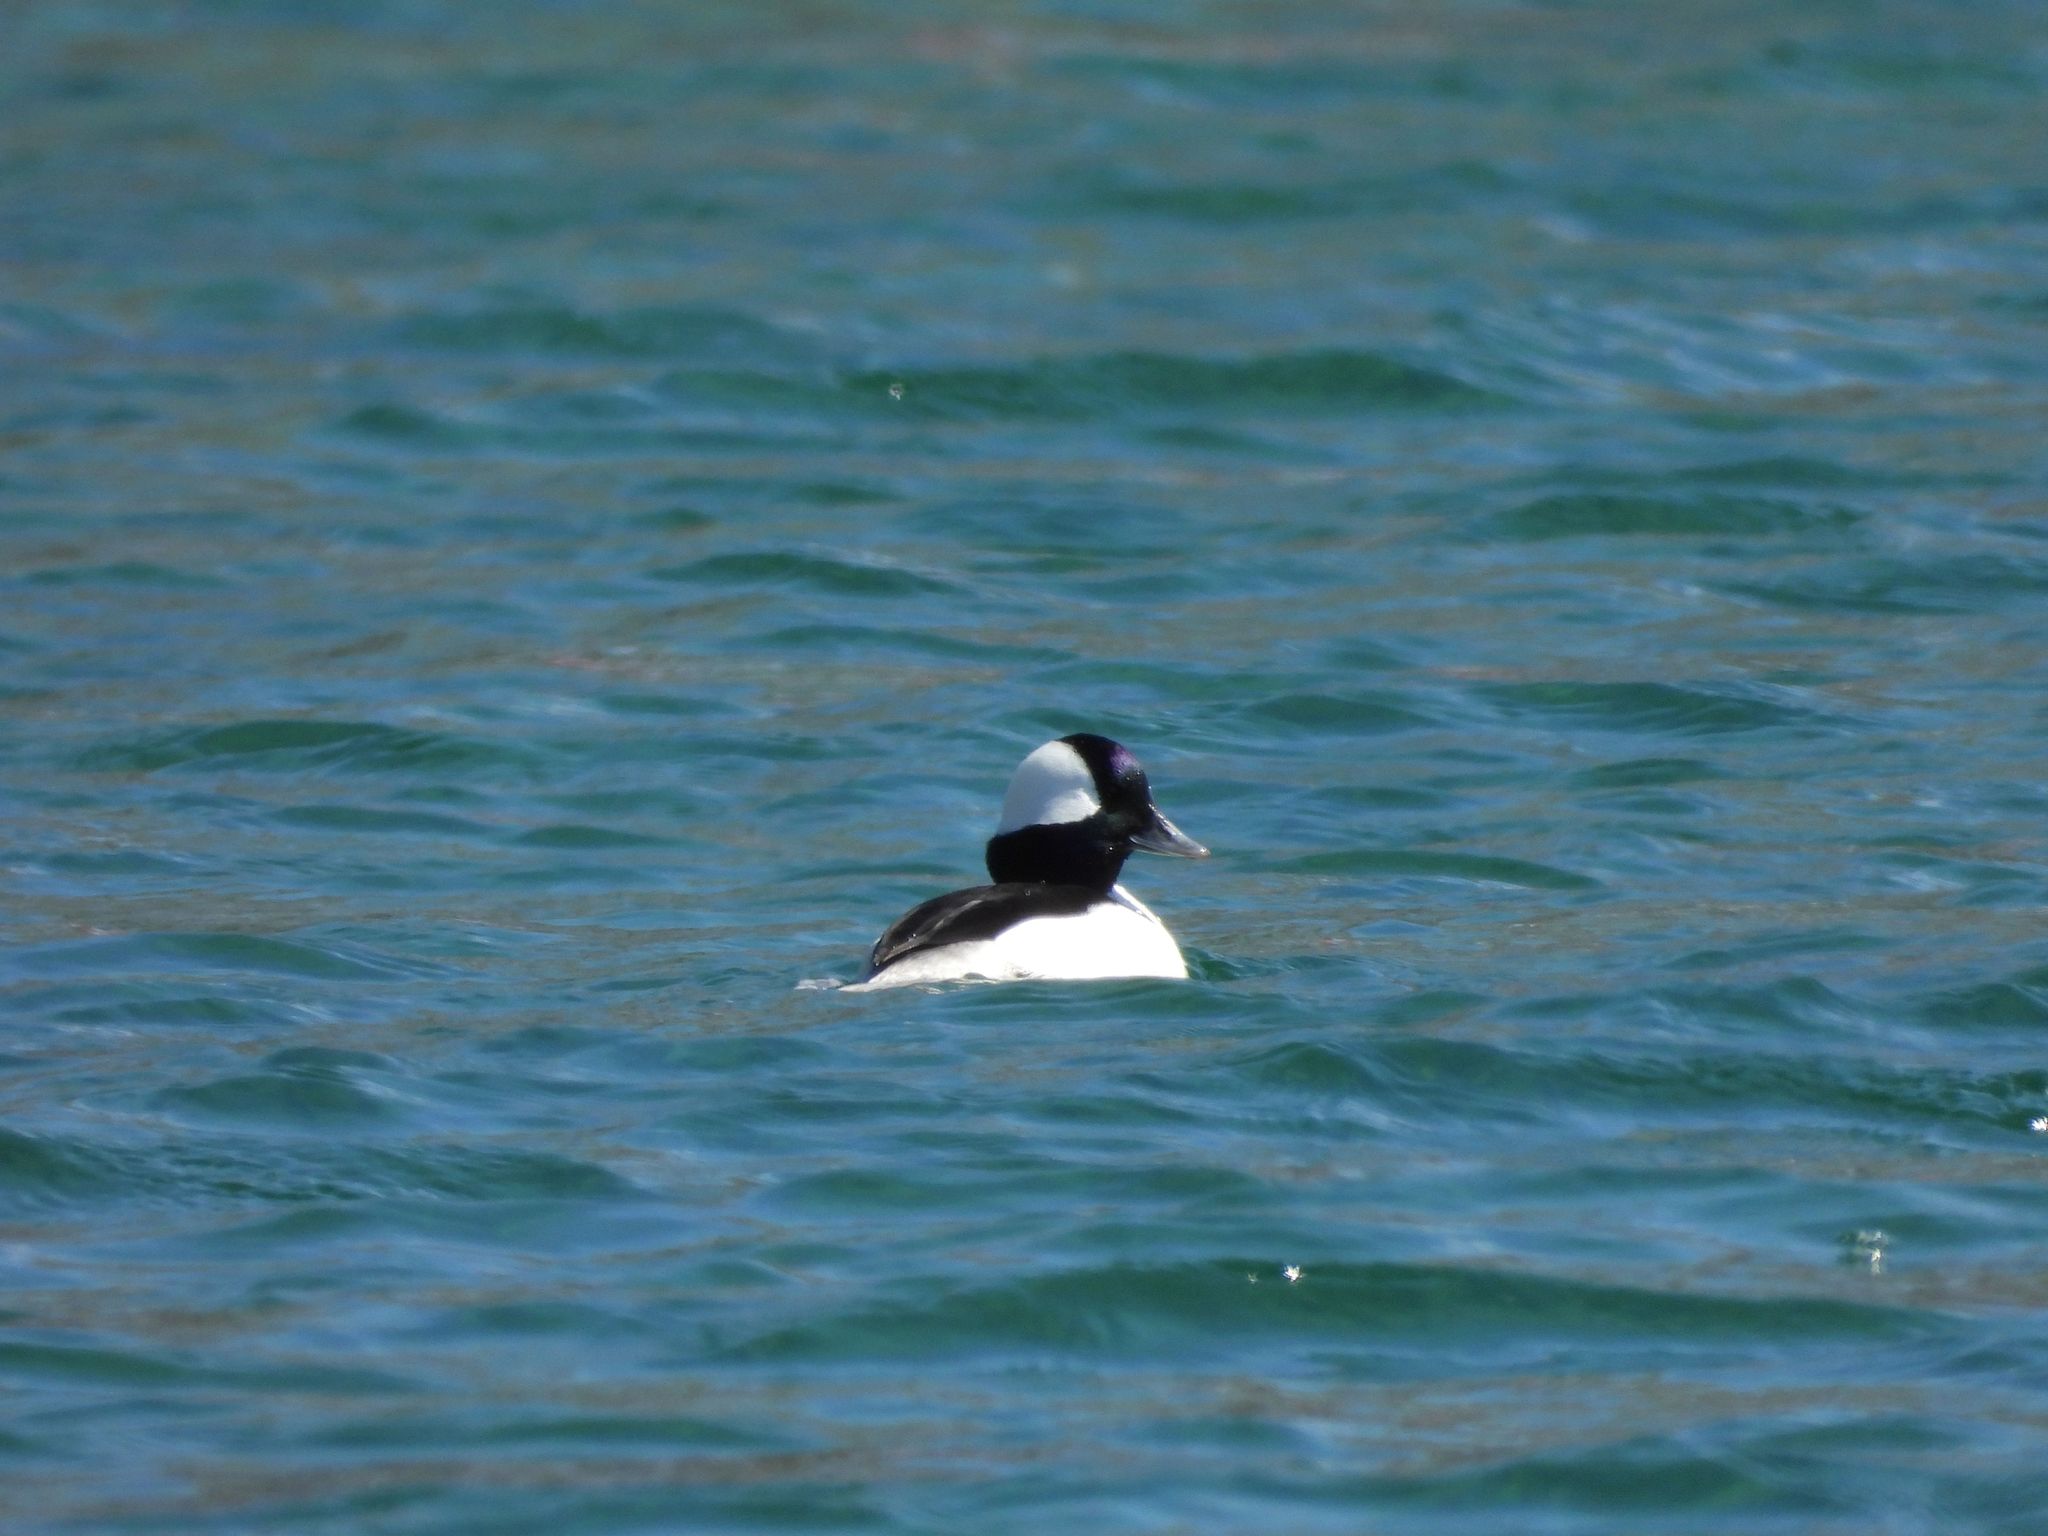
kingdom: Animalia
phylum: Chordata
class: Aves
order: Anseriformes
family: Anatidae
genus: Bucephala
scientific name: Bucephala albeola
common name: Bufflehead
